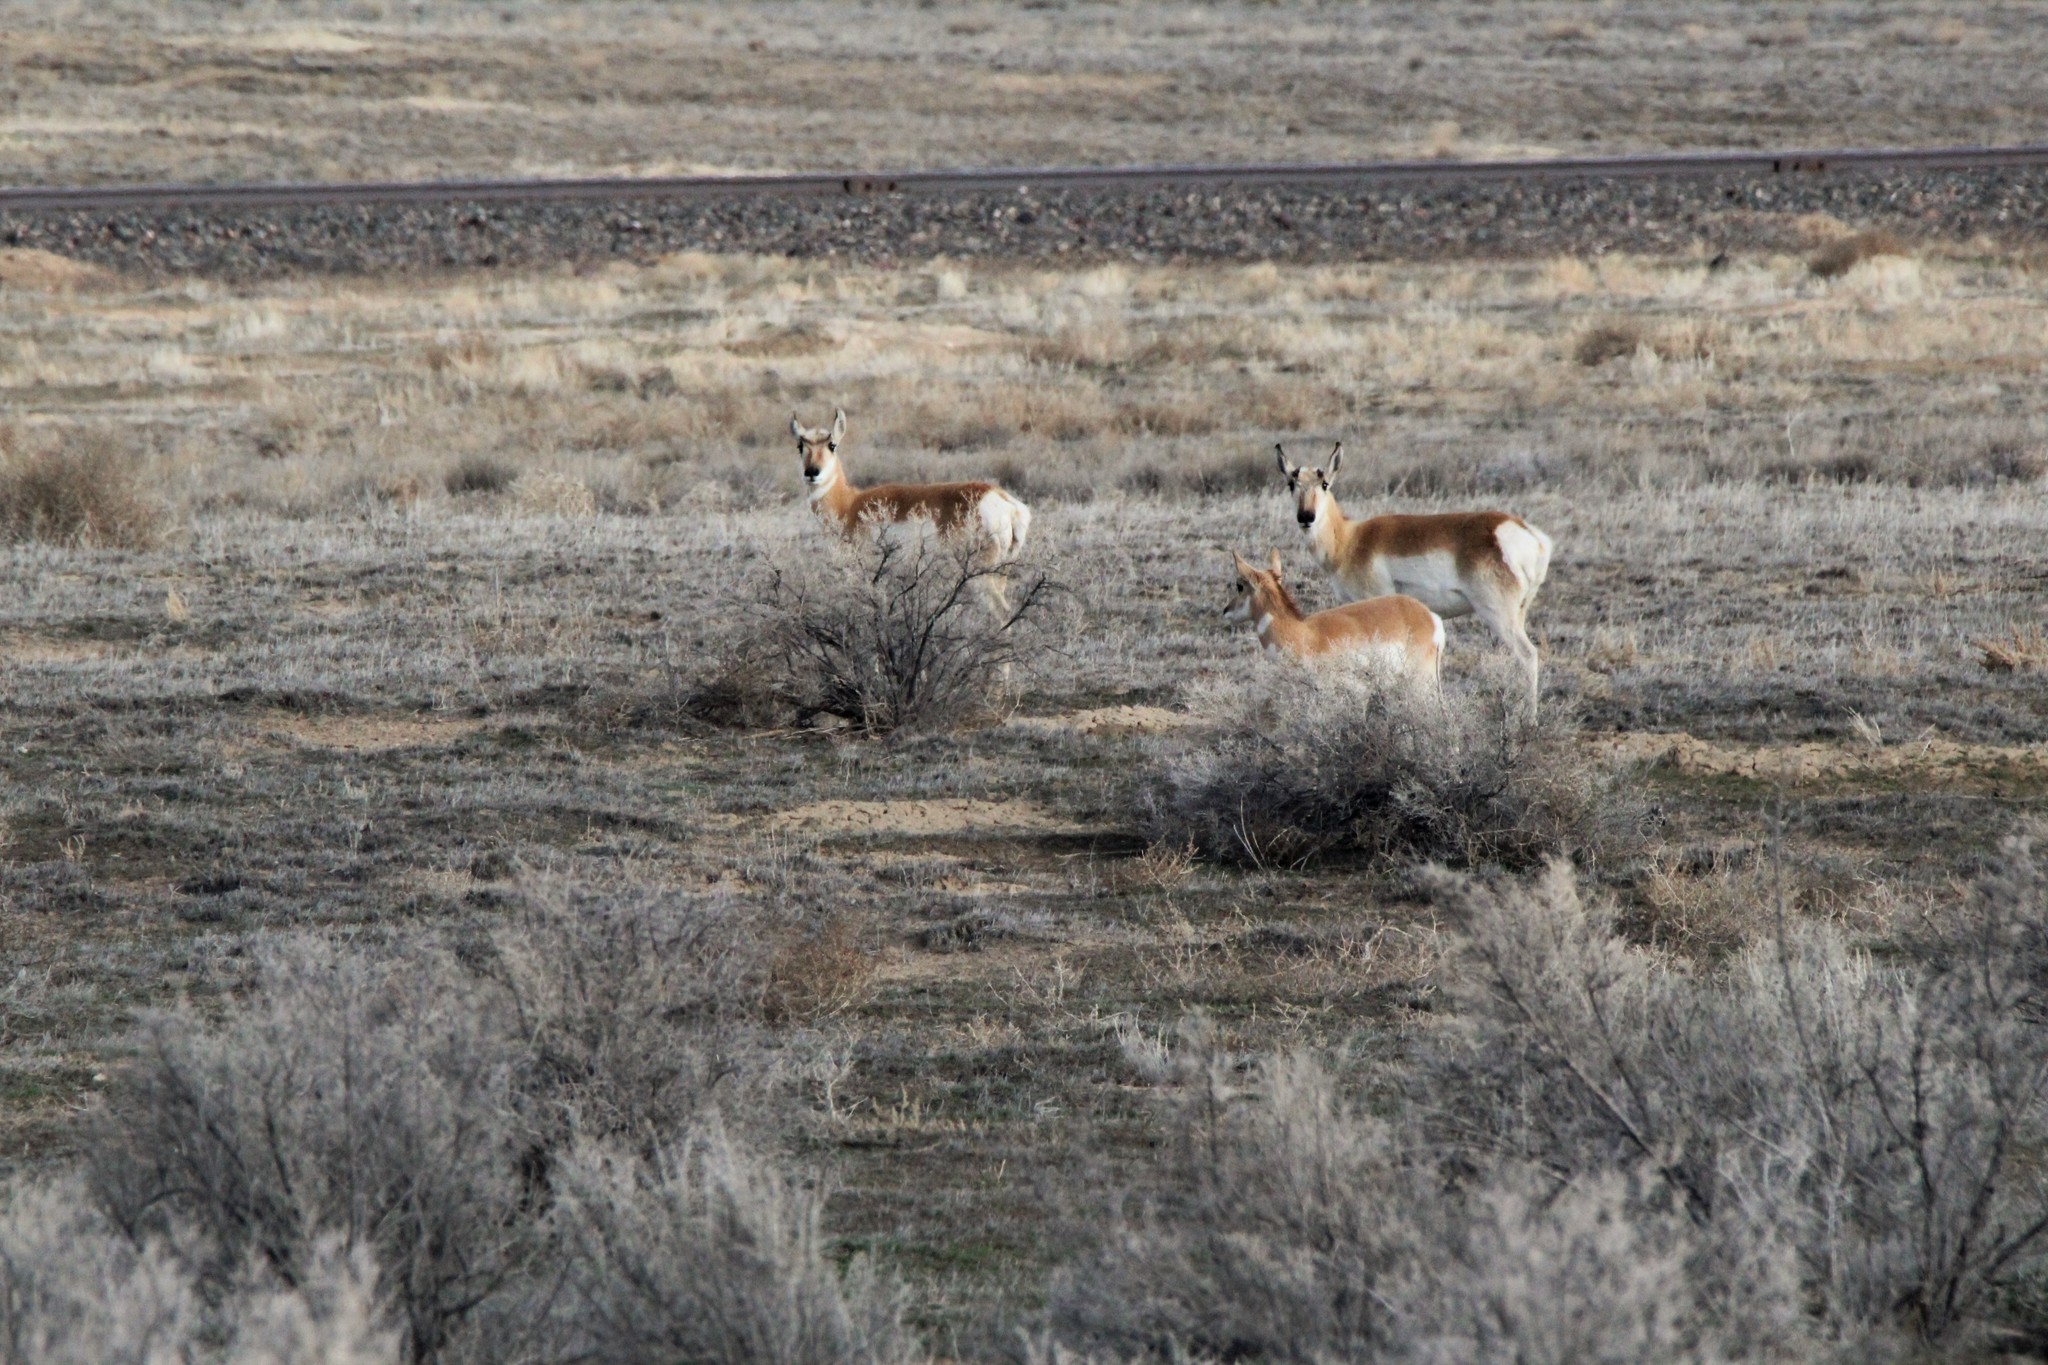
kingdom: Animalia
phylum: Chordata
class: Mammalia
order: Artiodactyla
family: Antilocapridae
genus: Antilocapra
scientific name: Antilocapra americana
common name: Pronghorn
